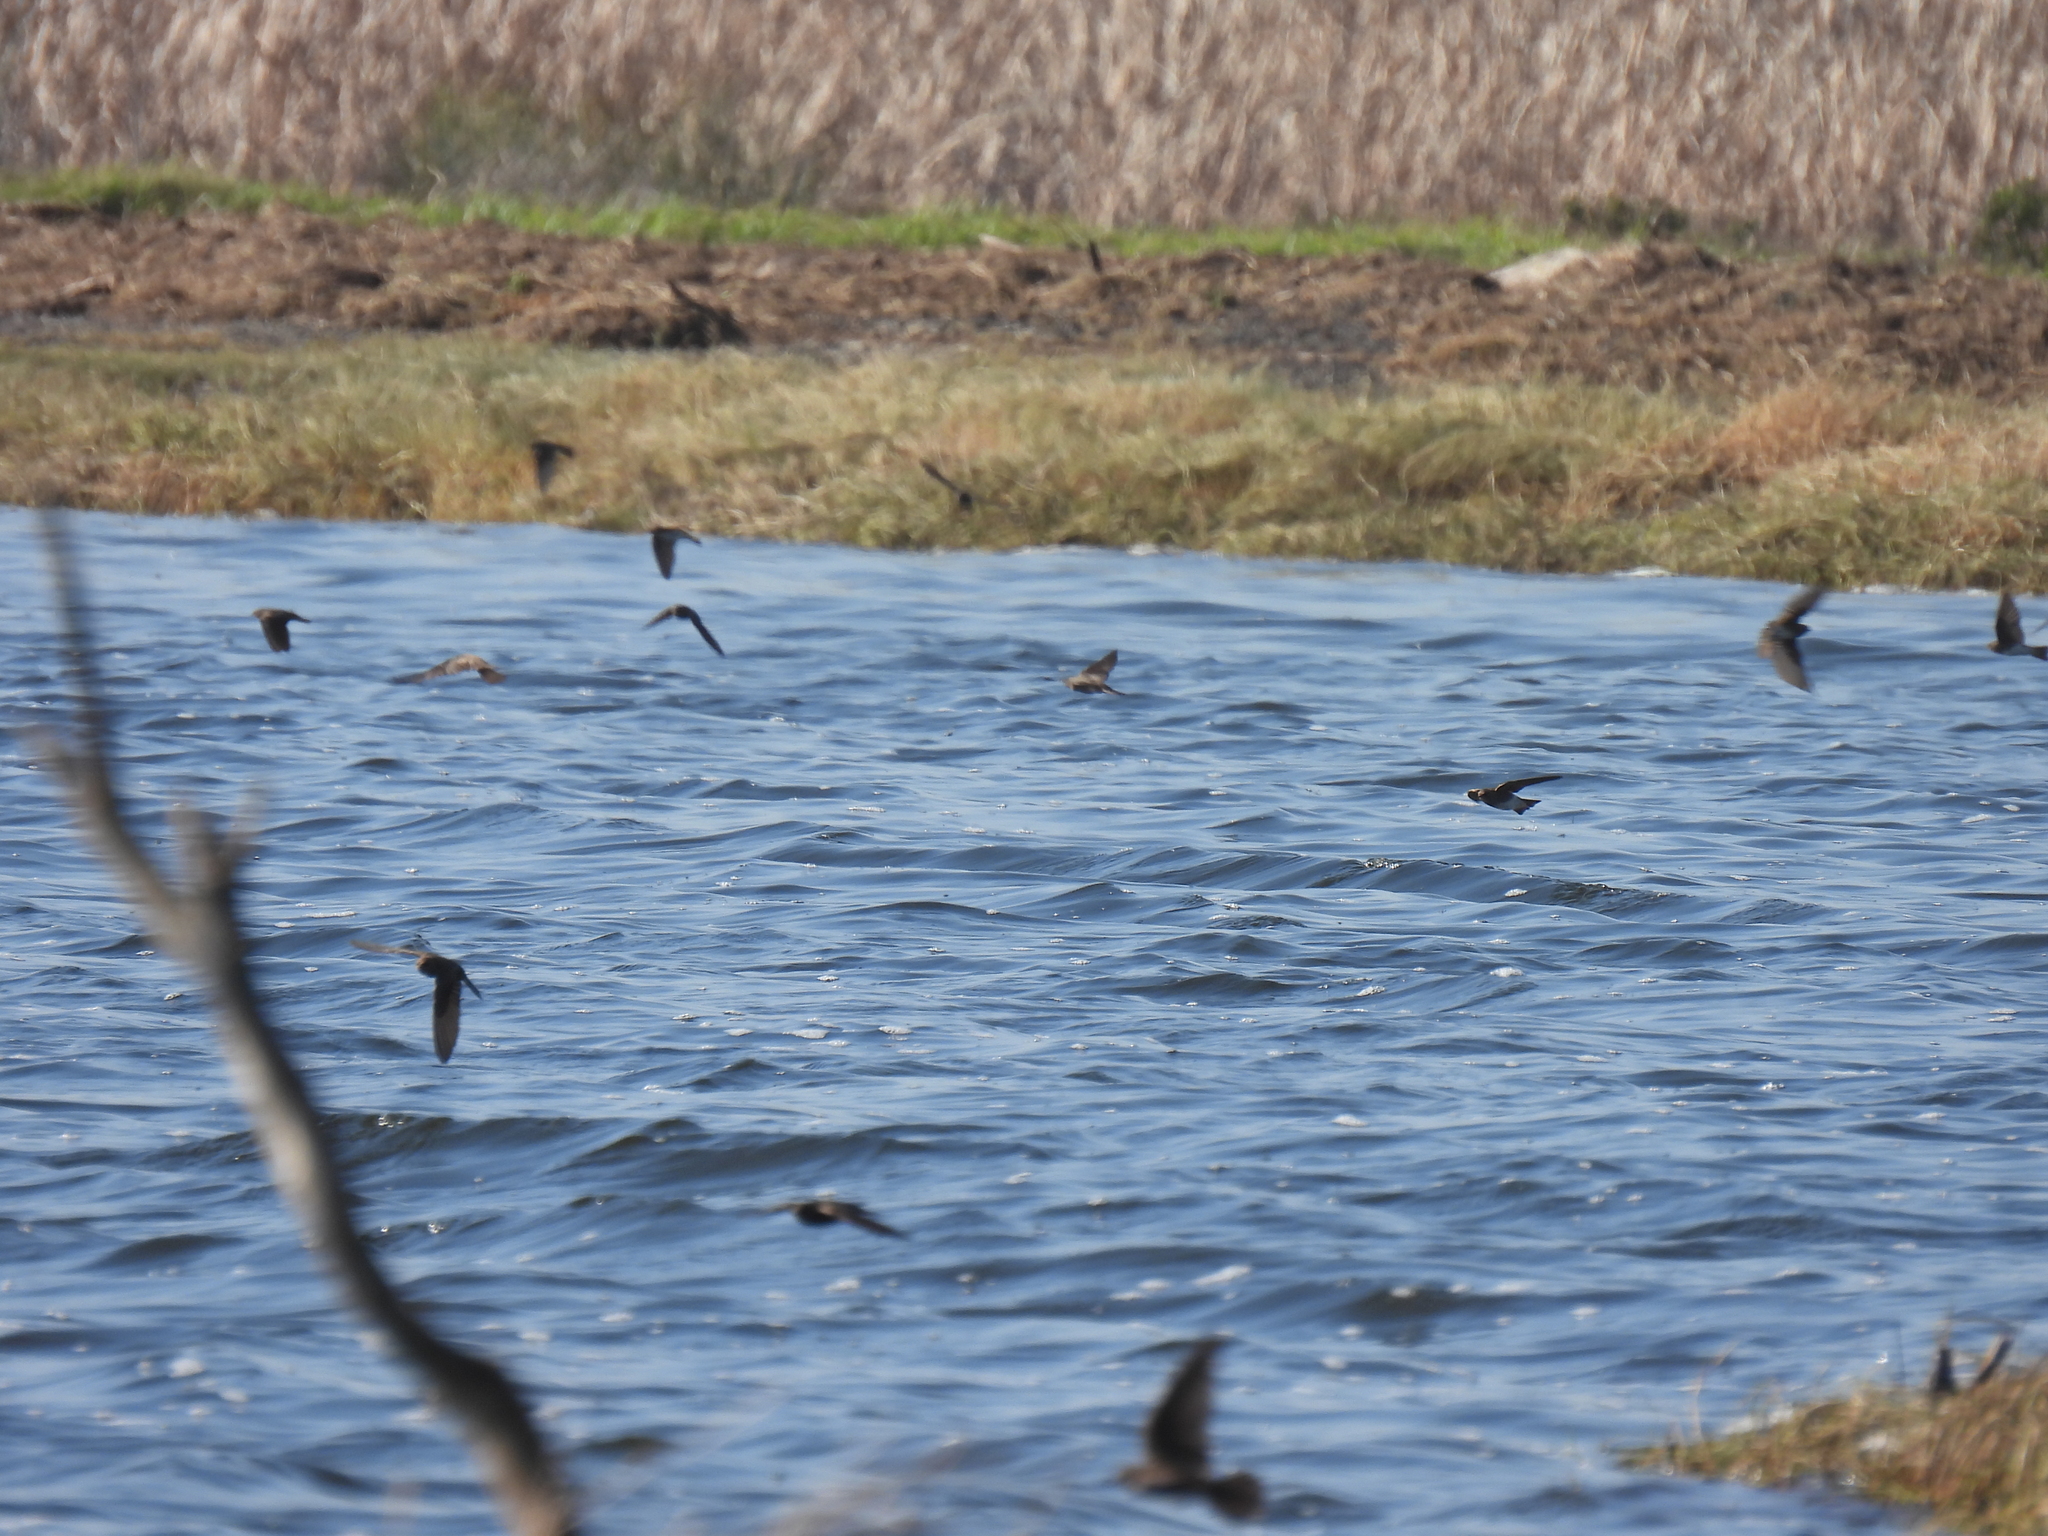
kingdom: Animalia
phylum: Chordata
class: Aves
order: Passeriformes
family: Hirundinidae
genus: Riparia
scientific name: Riparia paludicola
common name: Brown-throated martin
